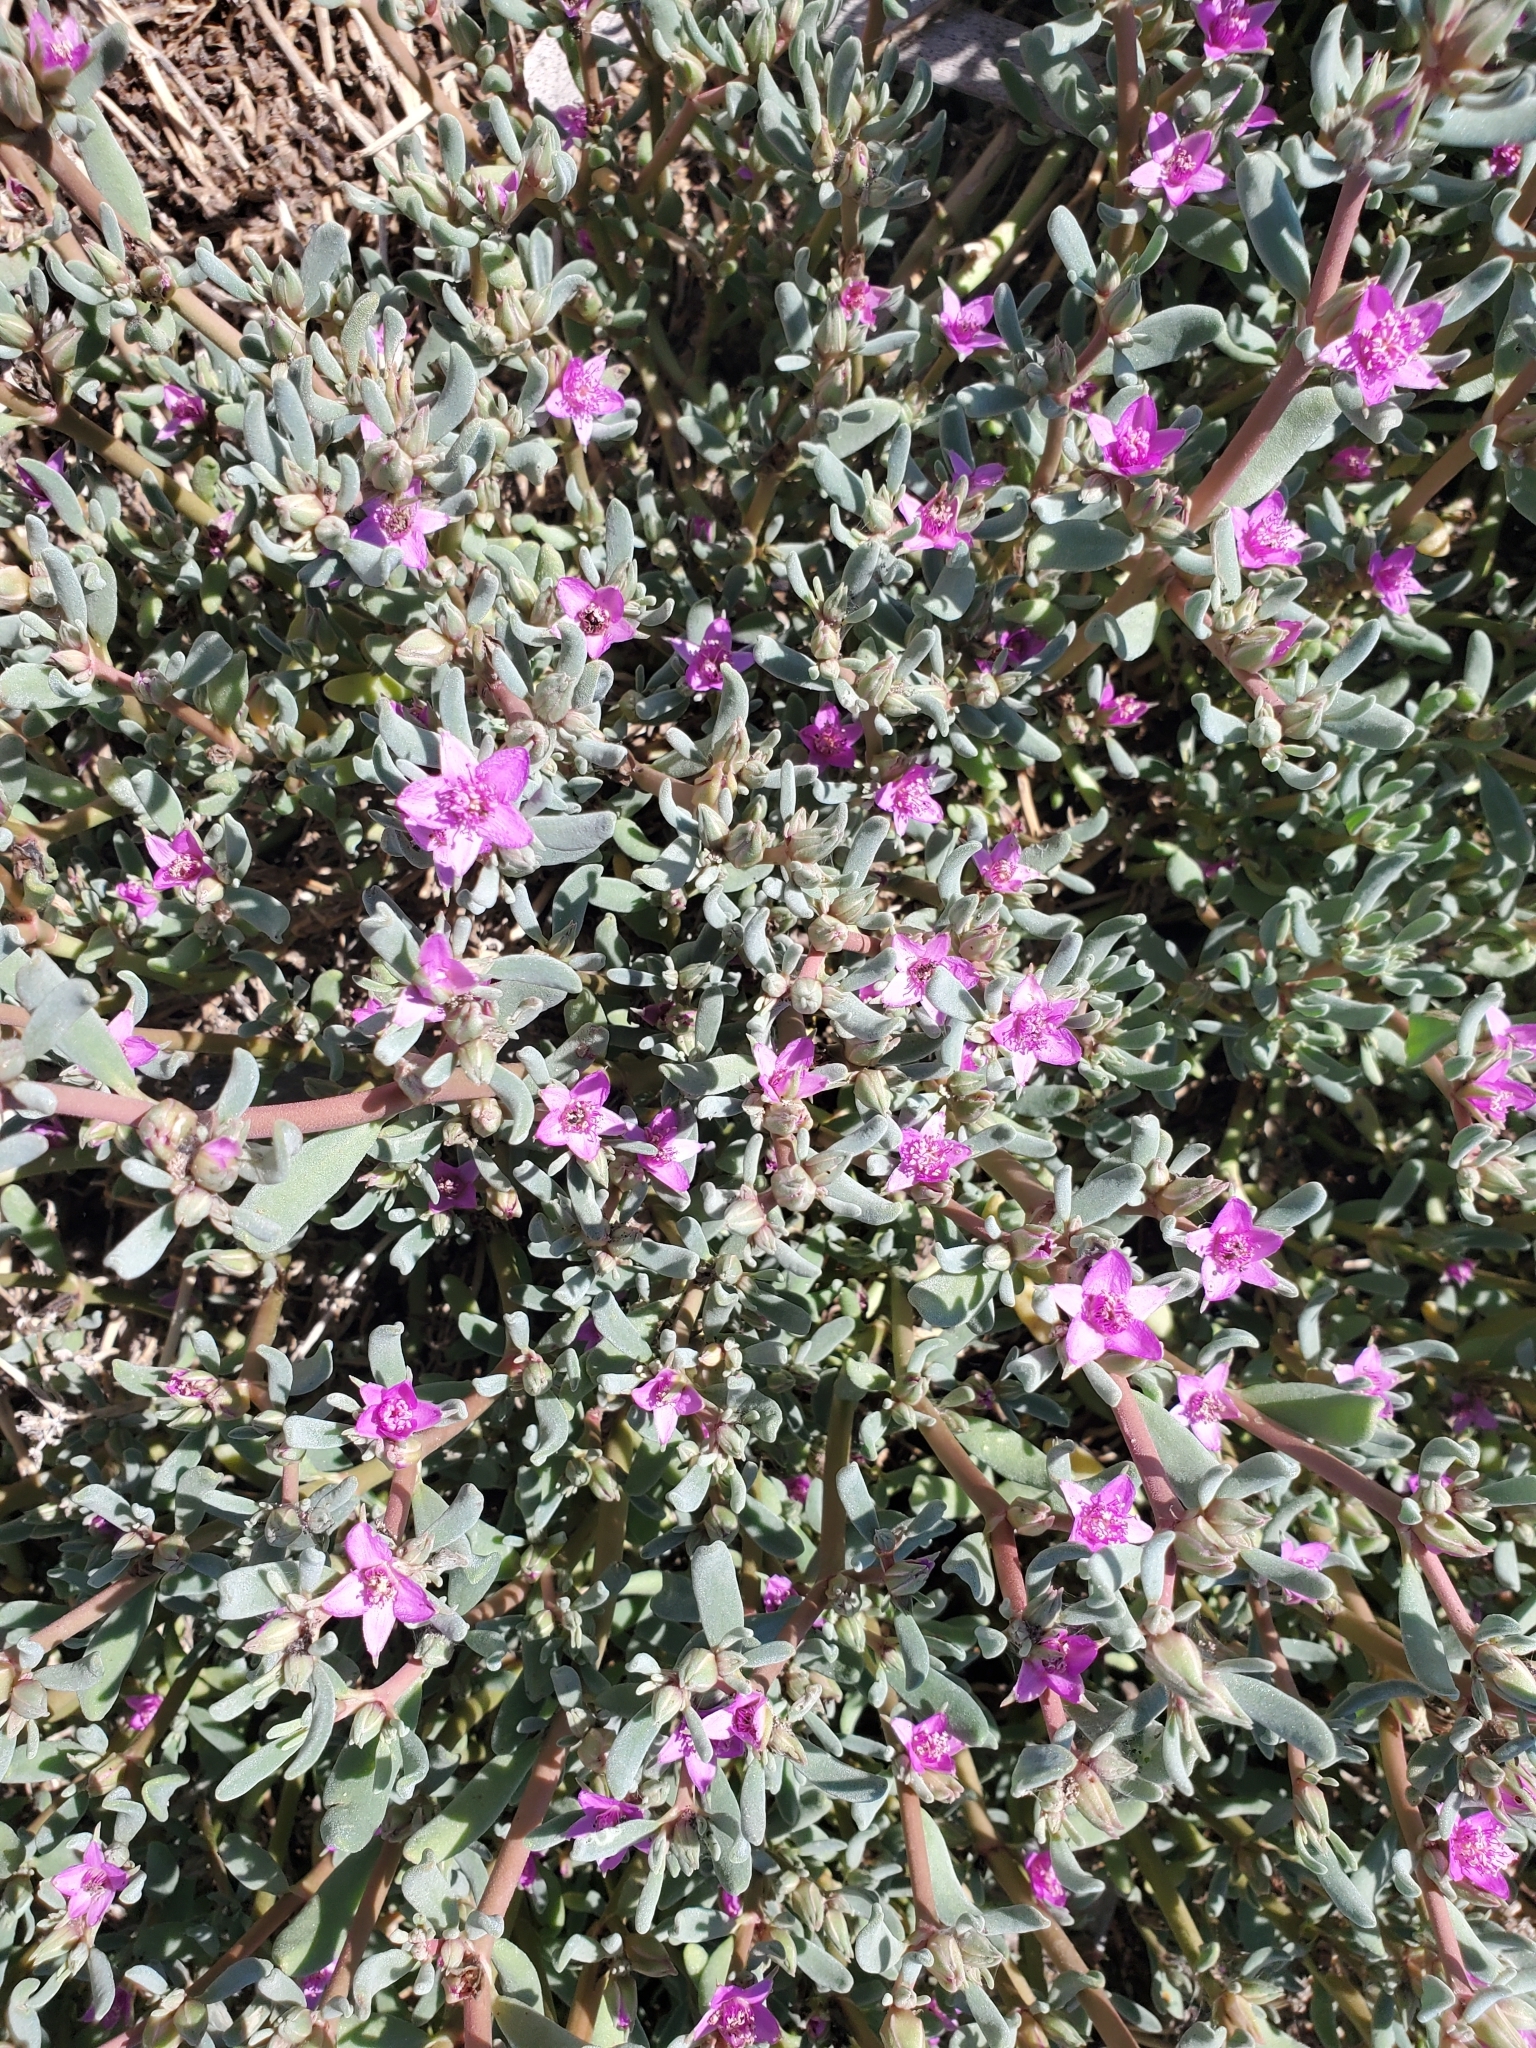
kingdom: Plantae
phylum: Tracheophyta
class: Magnoliopsida
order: Caryophyllales
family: Aizoaceae
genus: Sesuvium
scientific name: Sesuvium revolutifolium
